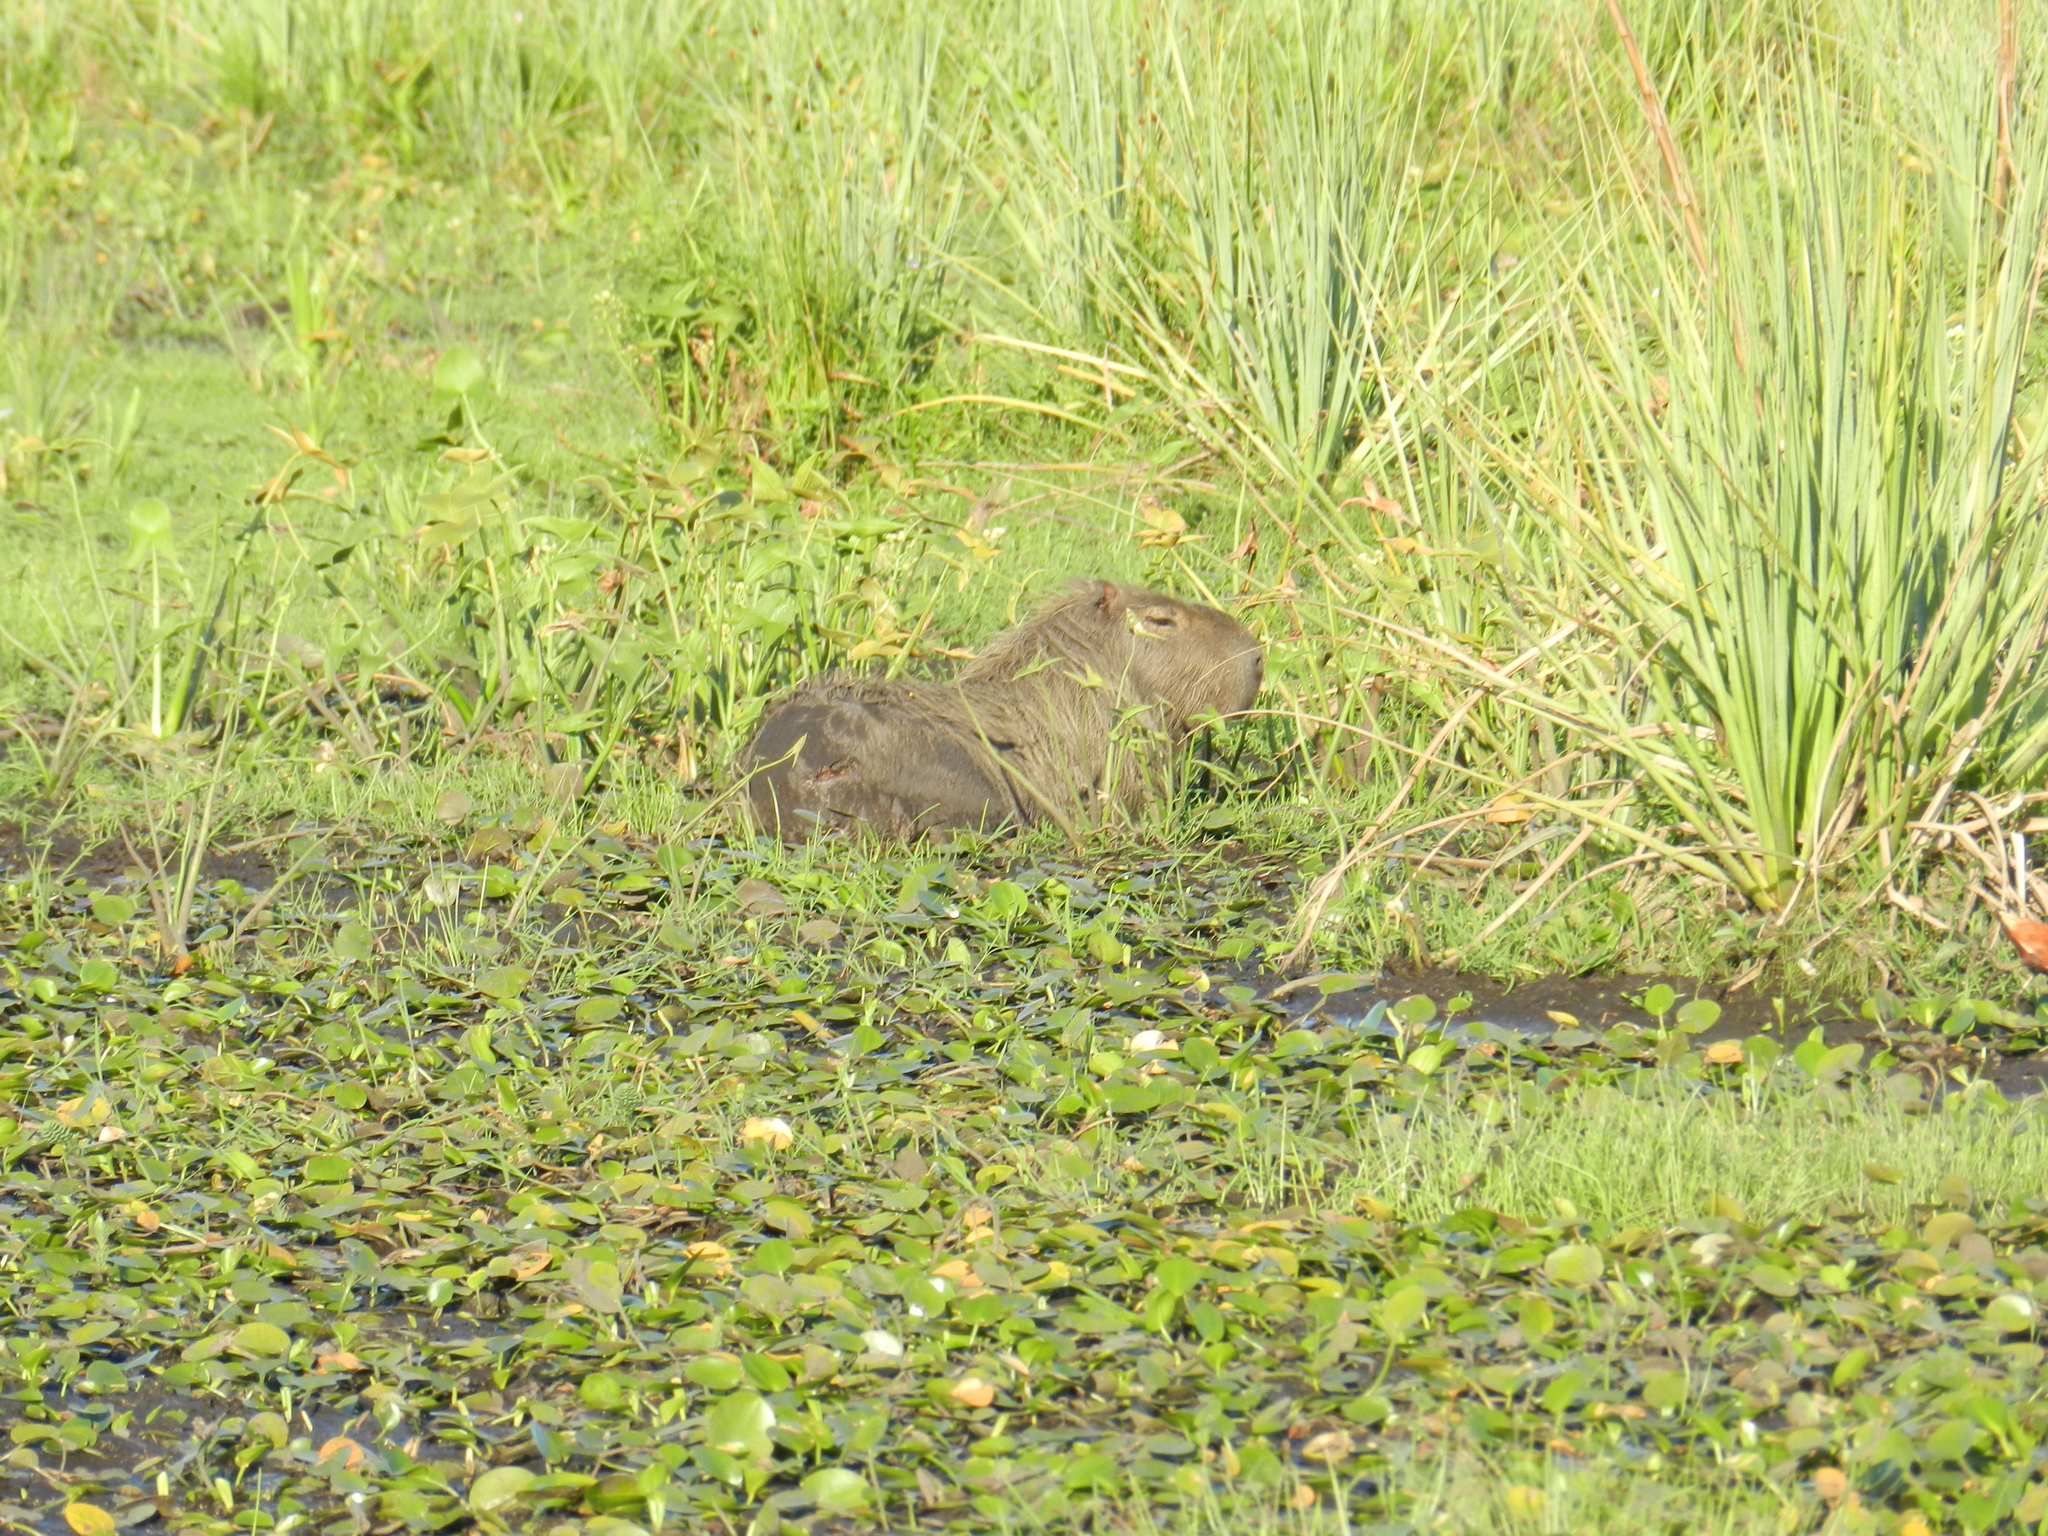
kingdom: Animalia
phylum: Chordata
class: Mammalia
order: Rodentia
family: Caviidae
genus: Hydrochoerus
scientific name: Hydrochoerus hydrochaeris
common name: Capybara
